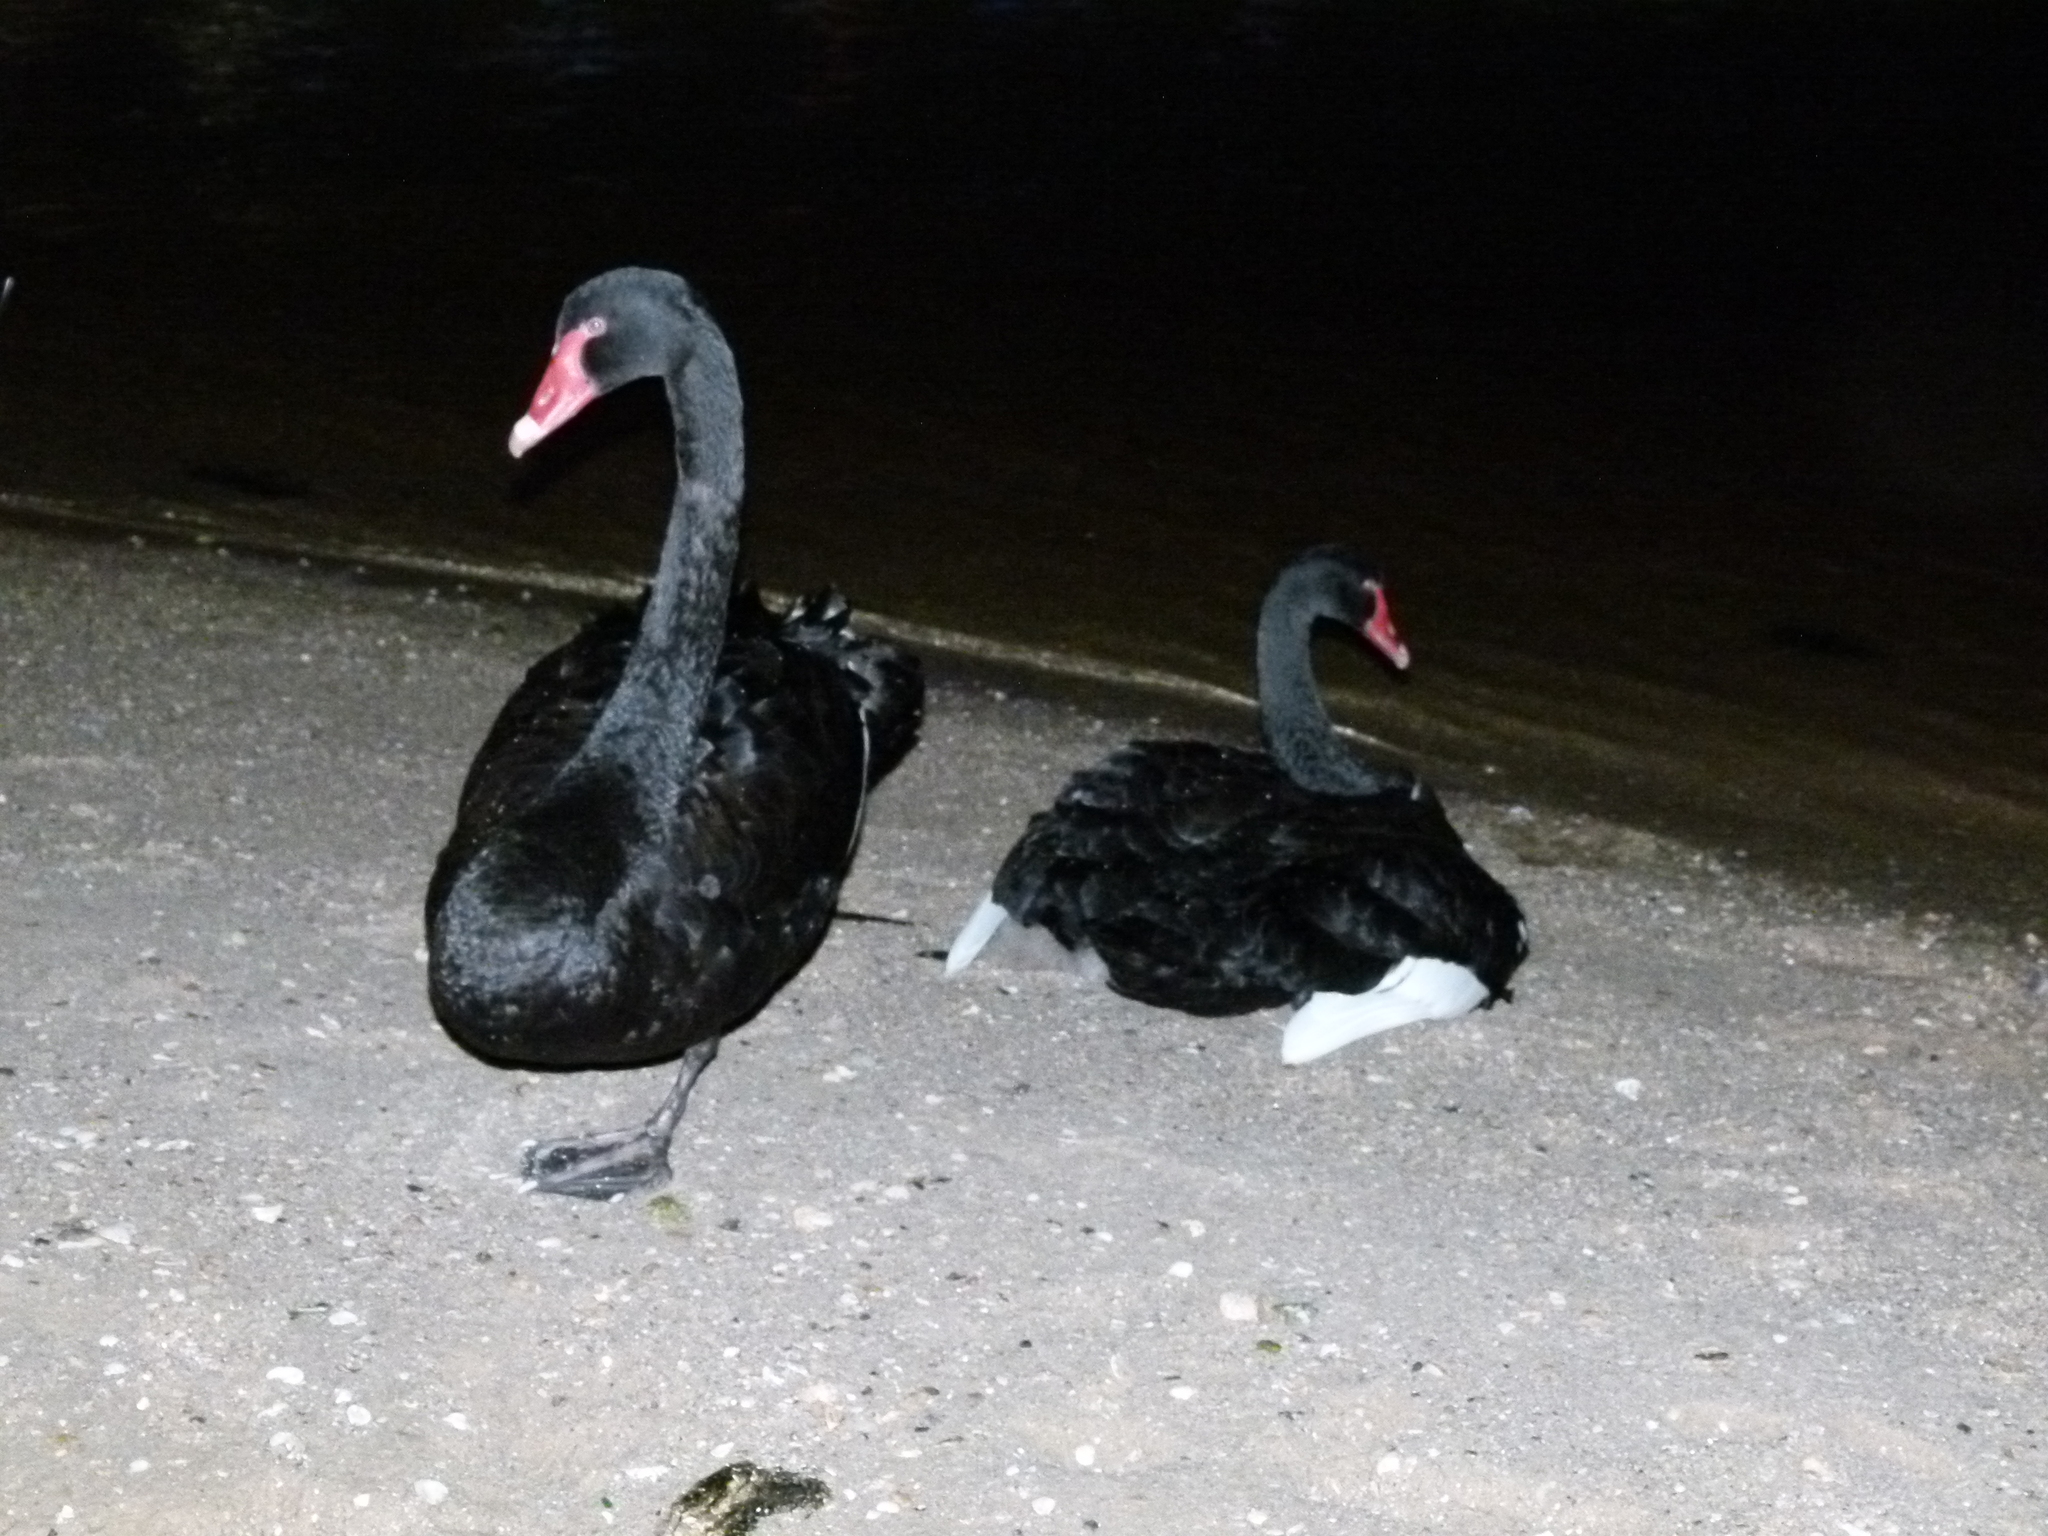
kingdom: Animalia
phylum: Chordata
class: Aves
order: Anseriformes
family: Anatidae
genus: Cygnus
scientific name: Cygnus atratus
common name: Black swan
